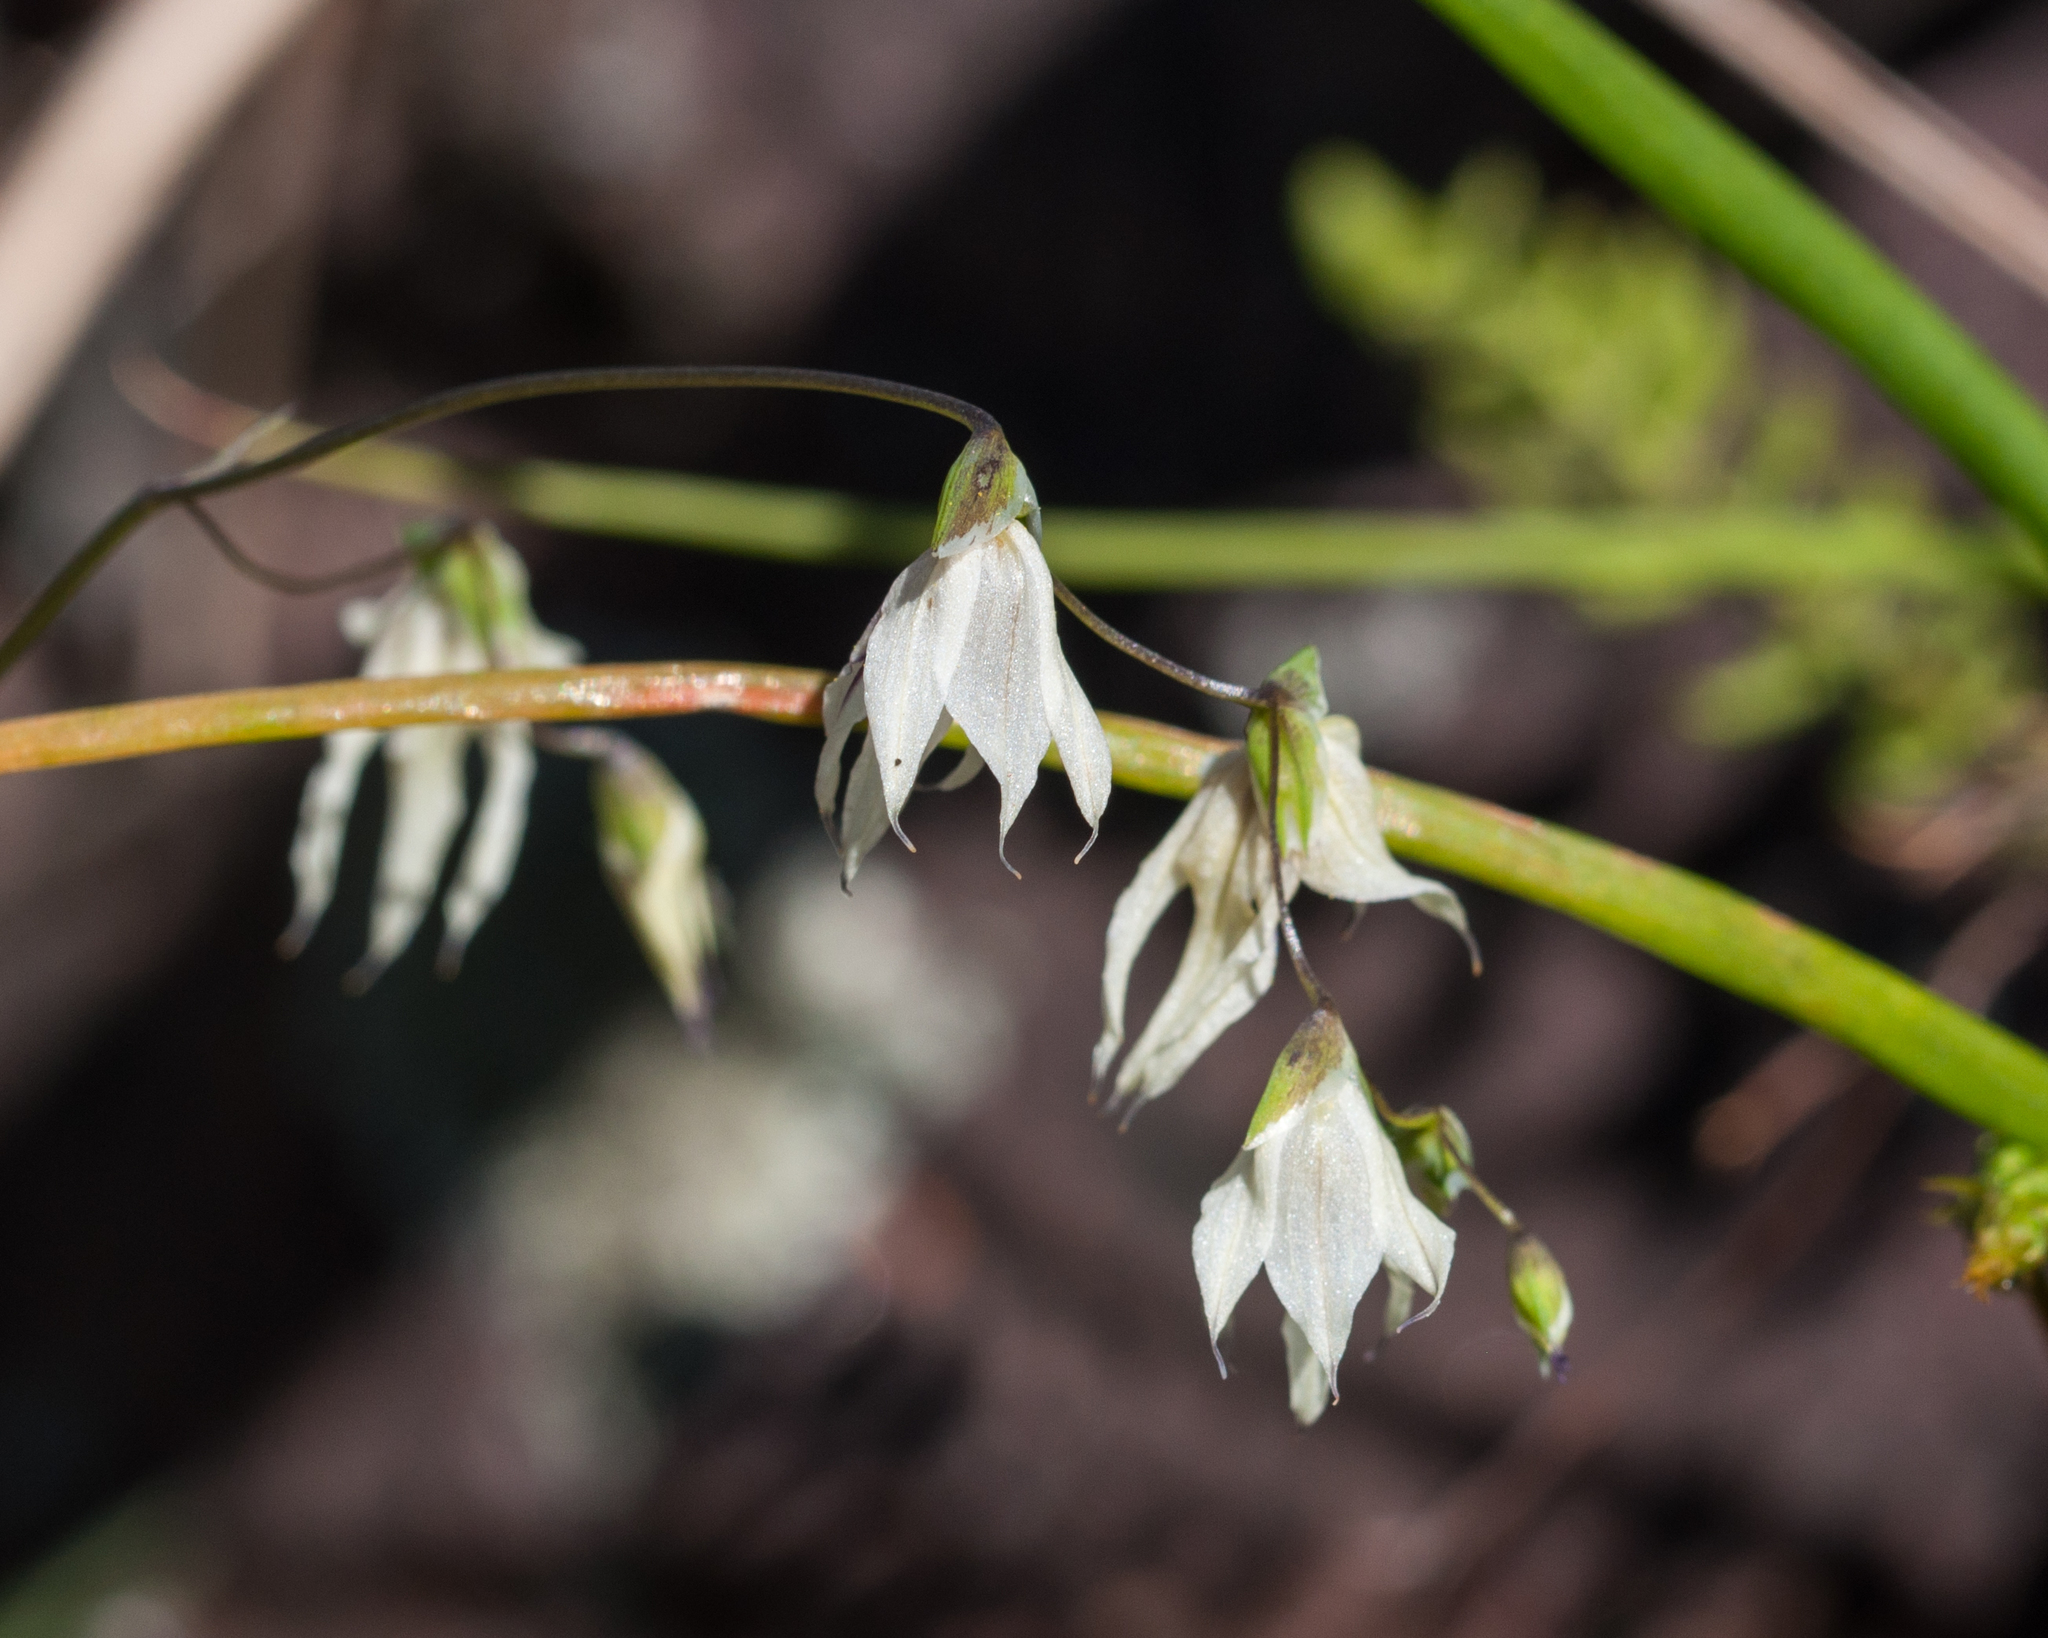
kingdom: Plantae
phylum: Tracheophyta
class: Liliopsida
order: Asparagales
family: Iridaceae
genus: Melasphaerula
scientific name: Melasphaerula graminea
